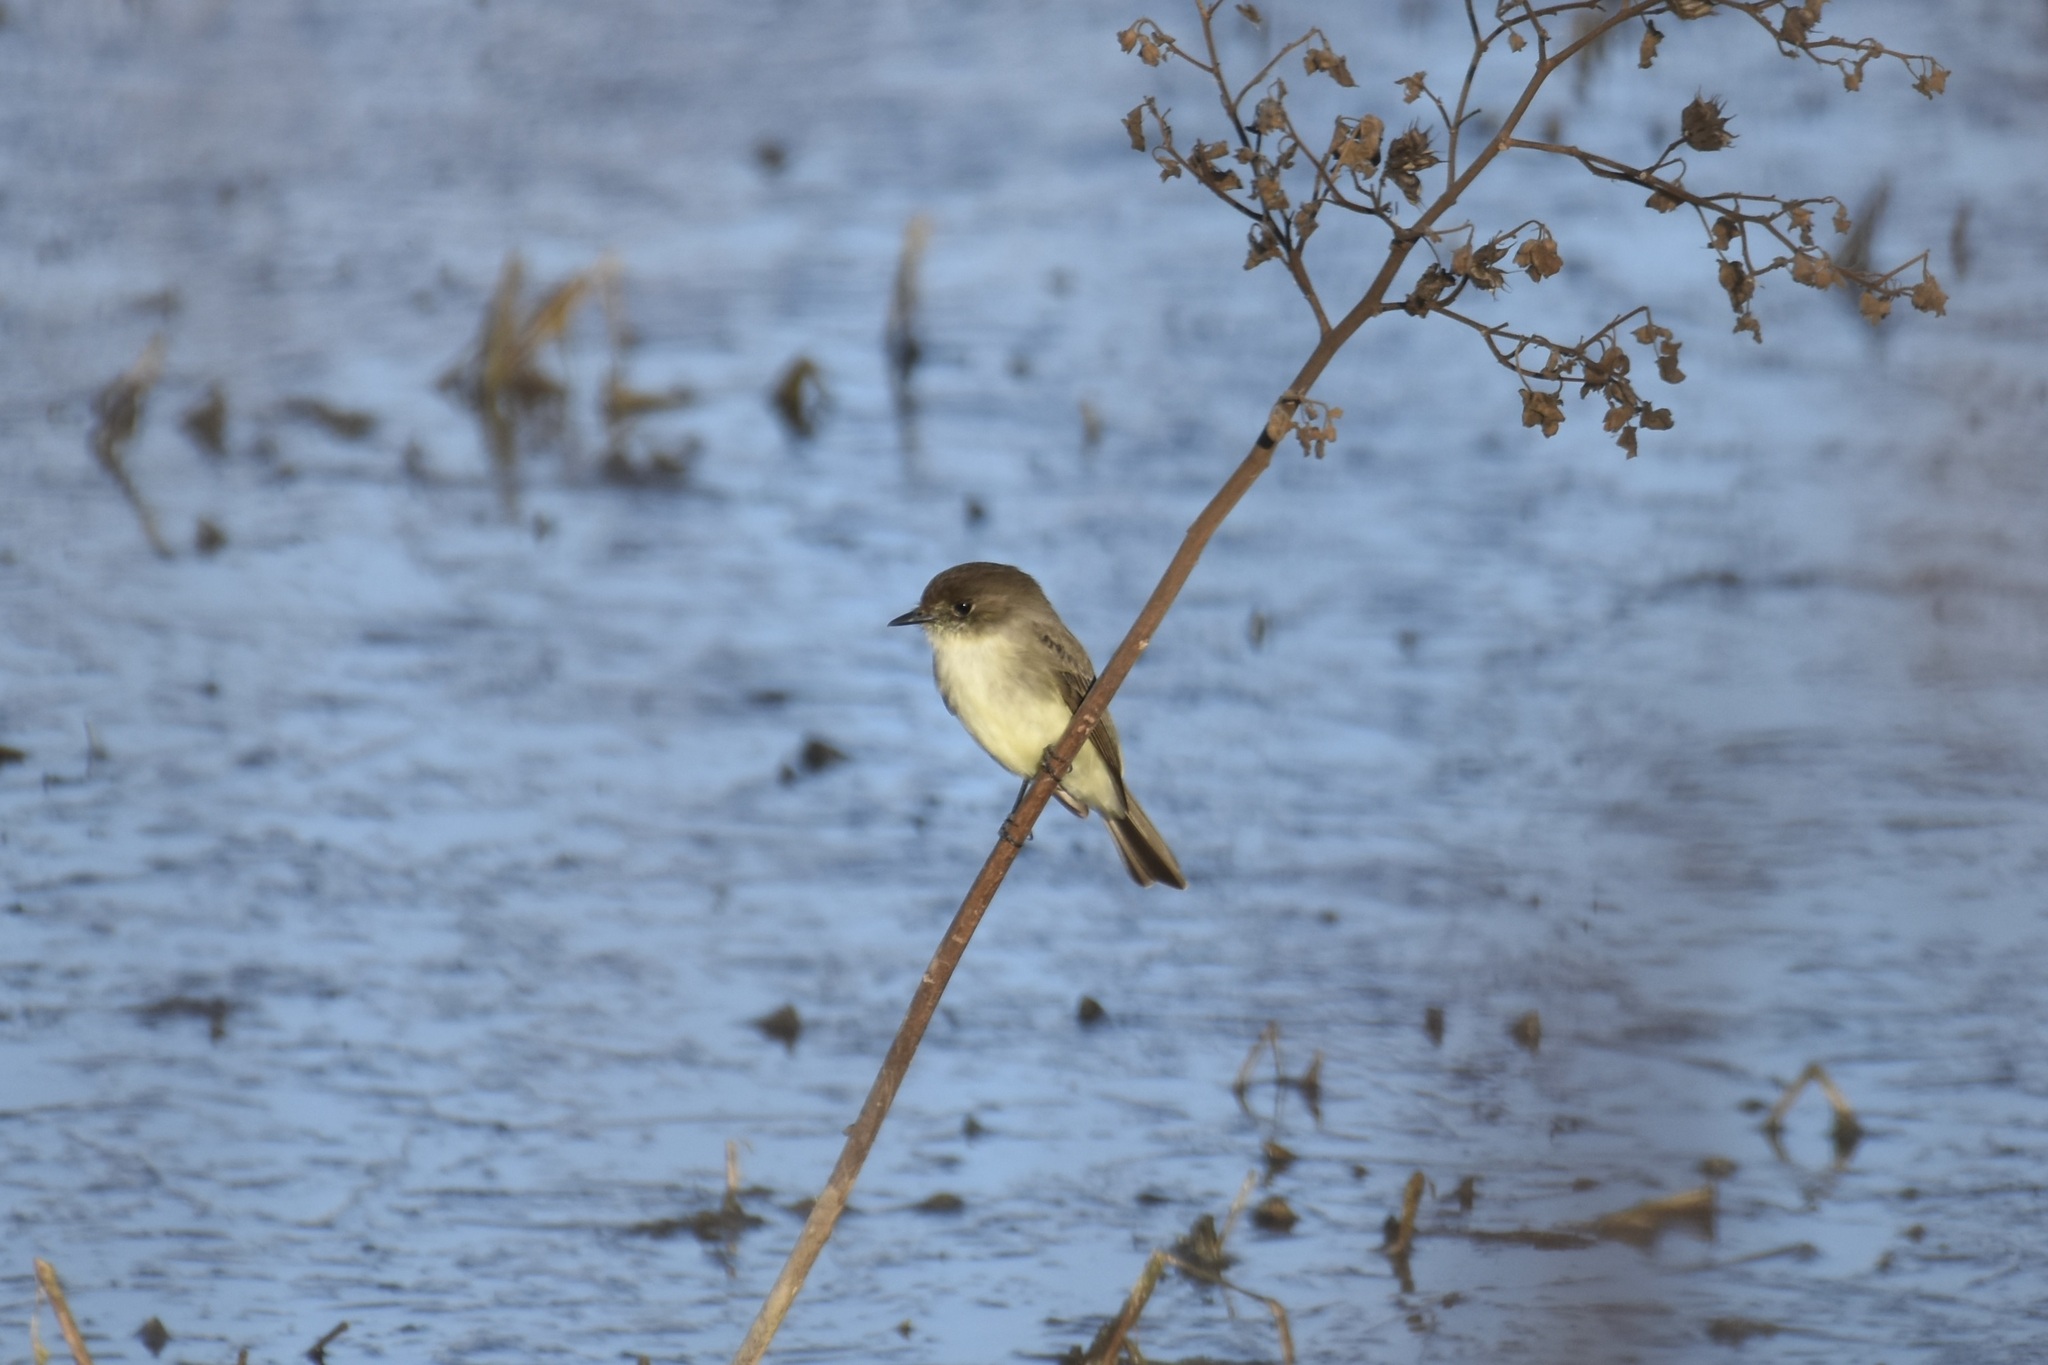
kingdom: Animalia
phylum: Chordata
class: Aves
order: Passeriformes
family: Tyrannidae
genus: Sayornis
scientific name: Sayornis phoebe
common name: Eastern phoebe
